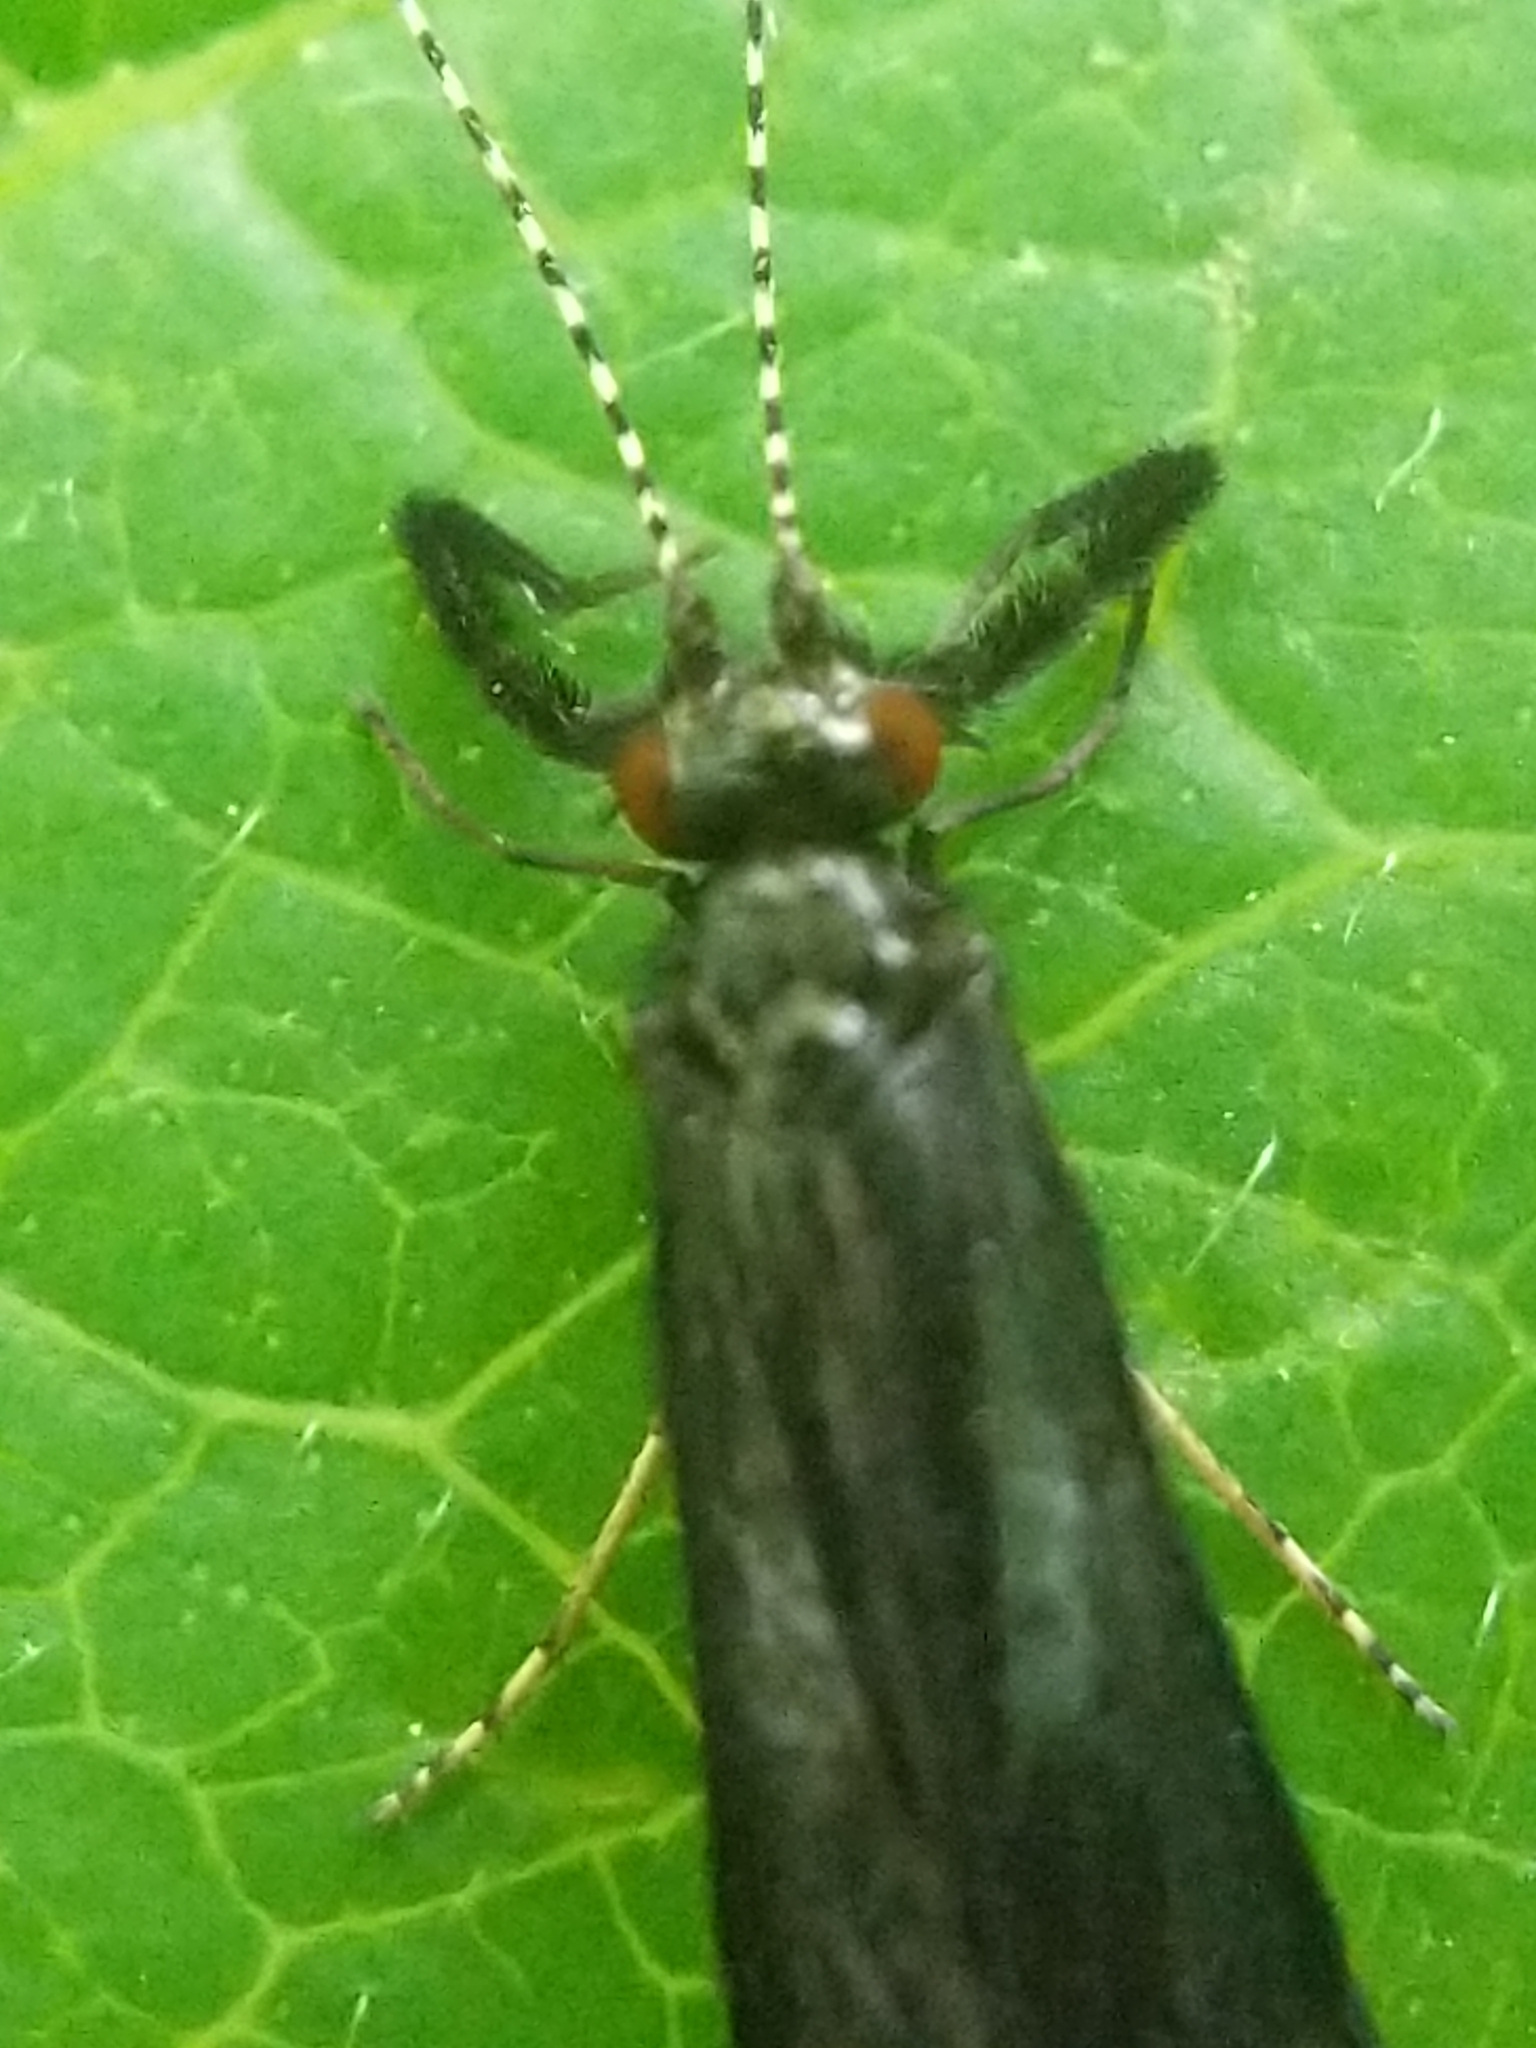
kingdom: Animalia
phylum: Arthropoda
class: Insecta
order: Trichoptera
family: Leptoceridae
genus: Mystacides
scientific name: Mystacides sepulchralis
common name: Black dancer caddisfly
